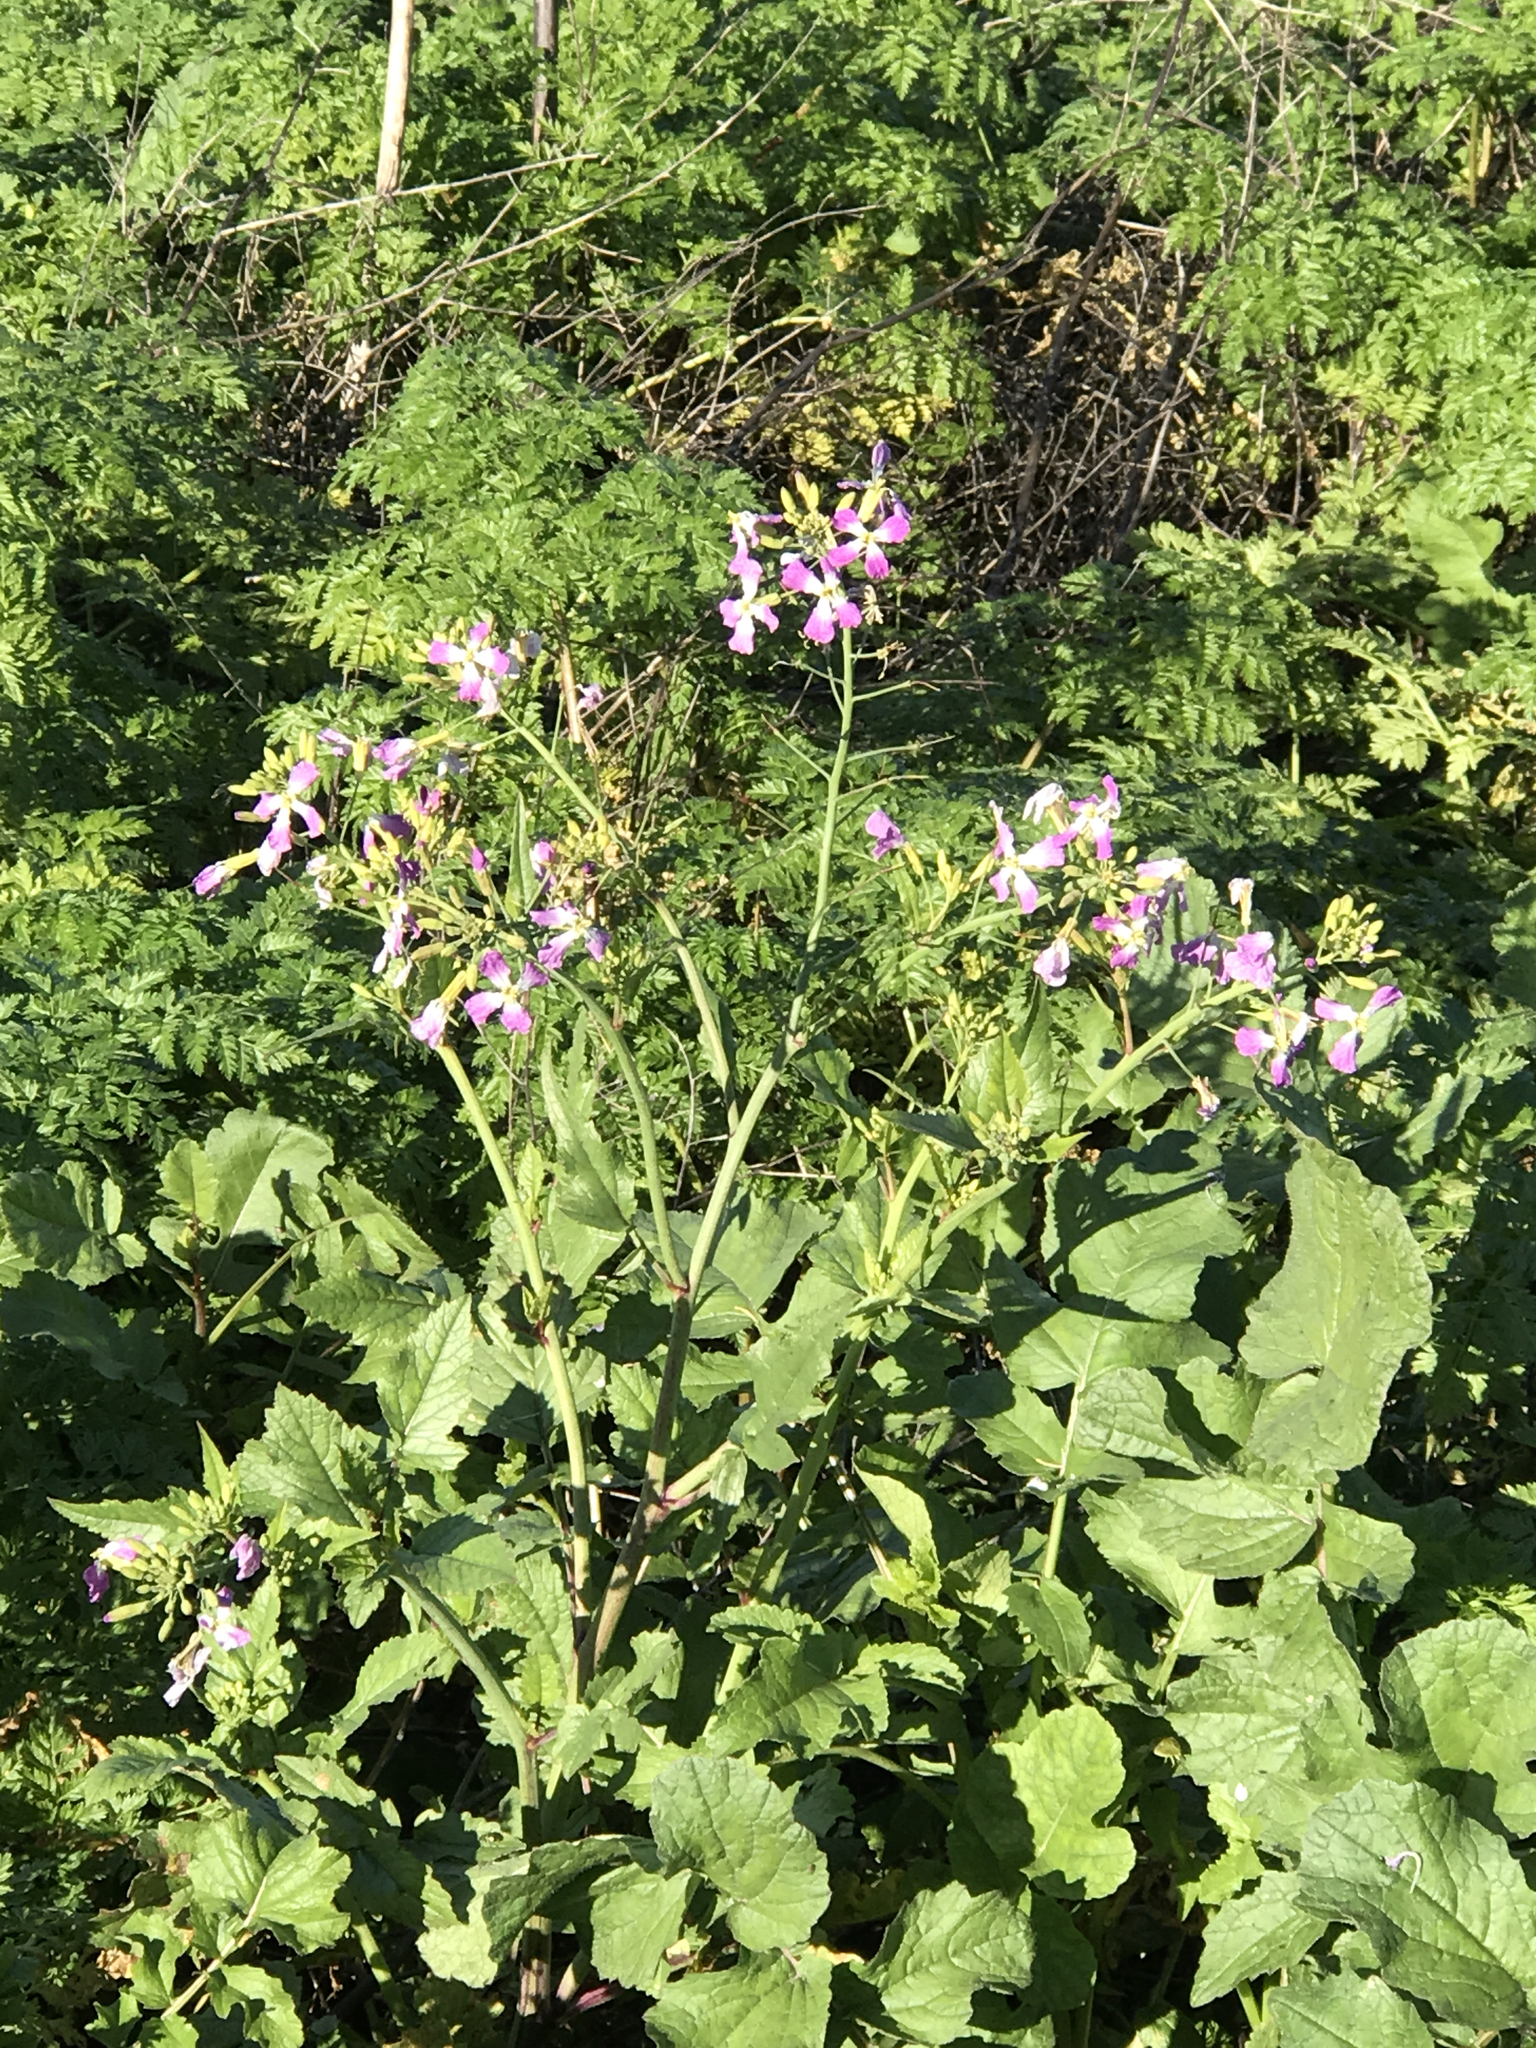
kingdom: Plantae
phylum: Tracheophyta
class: Magnoliopsida
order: Brassicales
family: Brassicaceae
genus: Raphanus
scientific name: Raphanus sativus
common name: Cultivated radish
